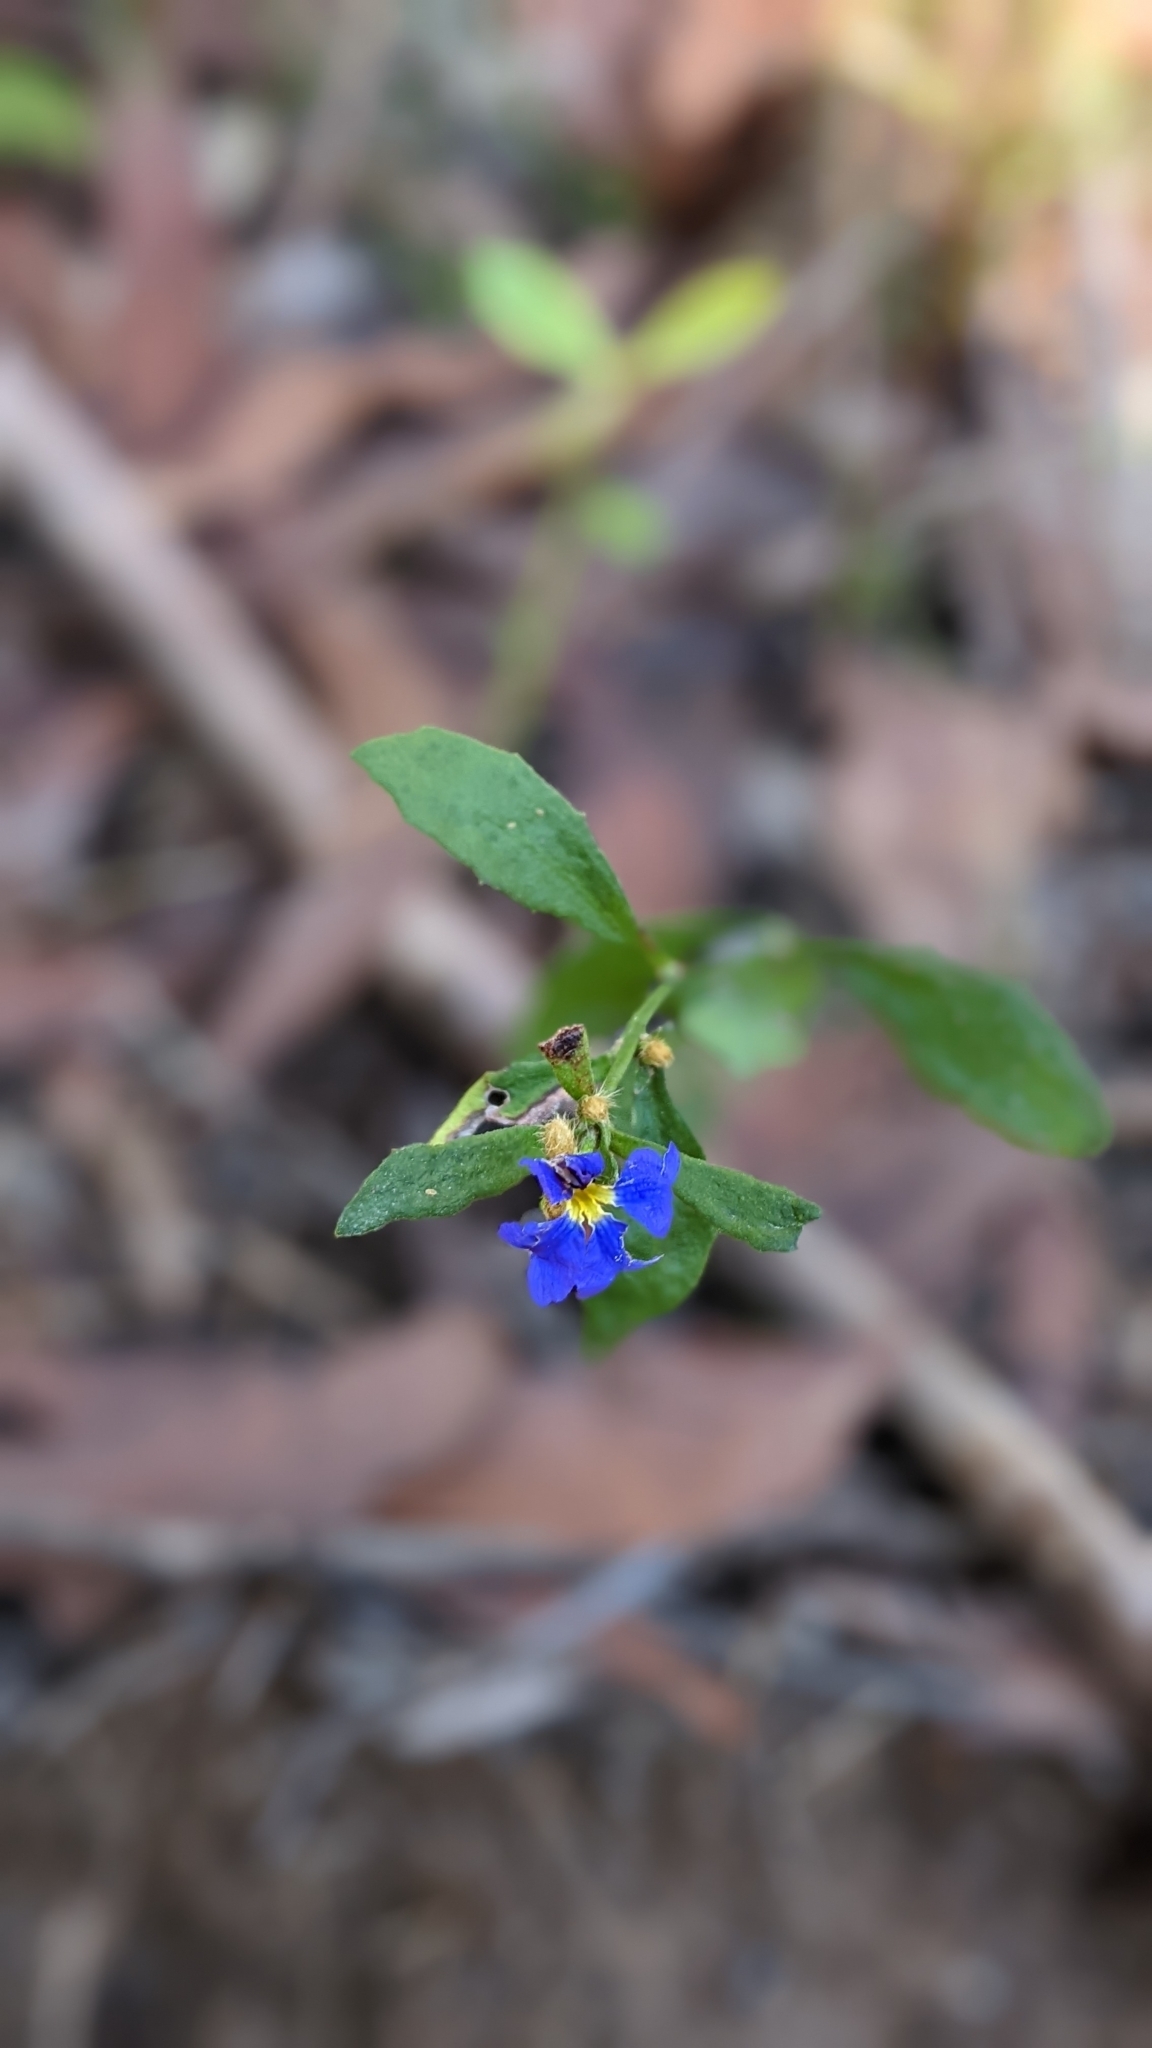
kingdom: Plantae
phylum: Tracheophyta
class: Magnoliopsida
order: Asterales
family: Goodeniaceae
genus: Dampiera
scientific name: Dampiera stricta
